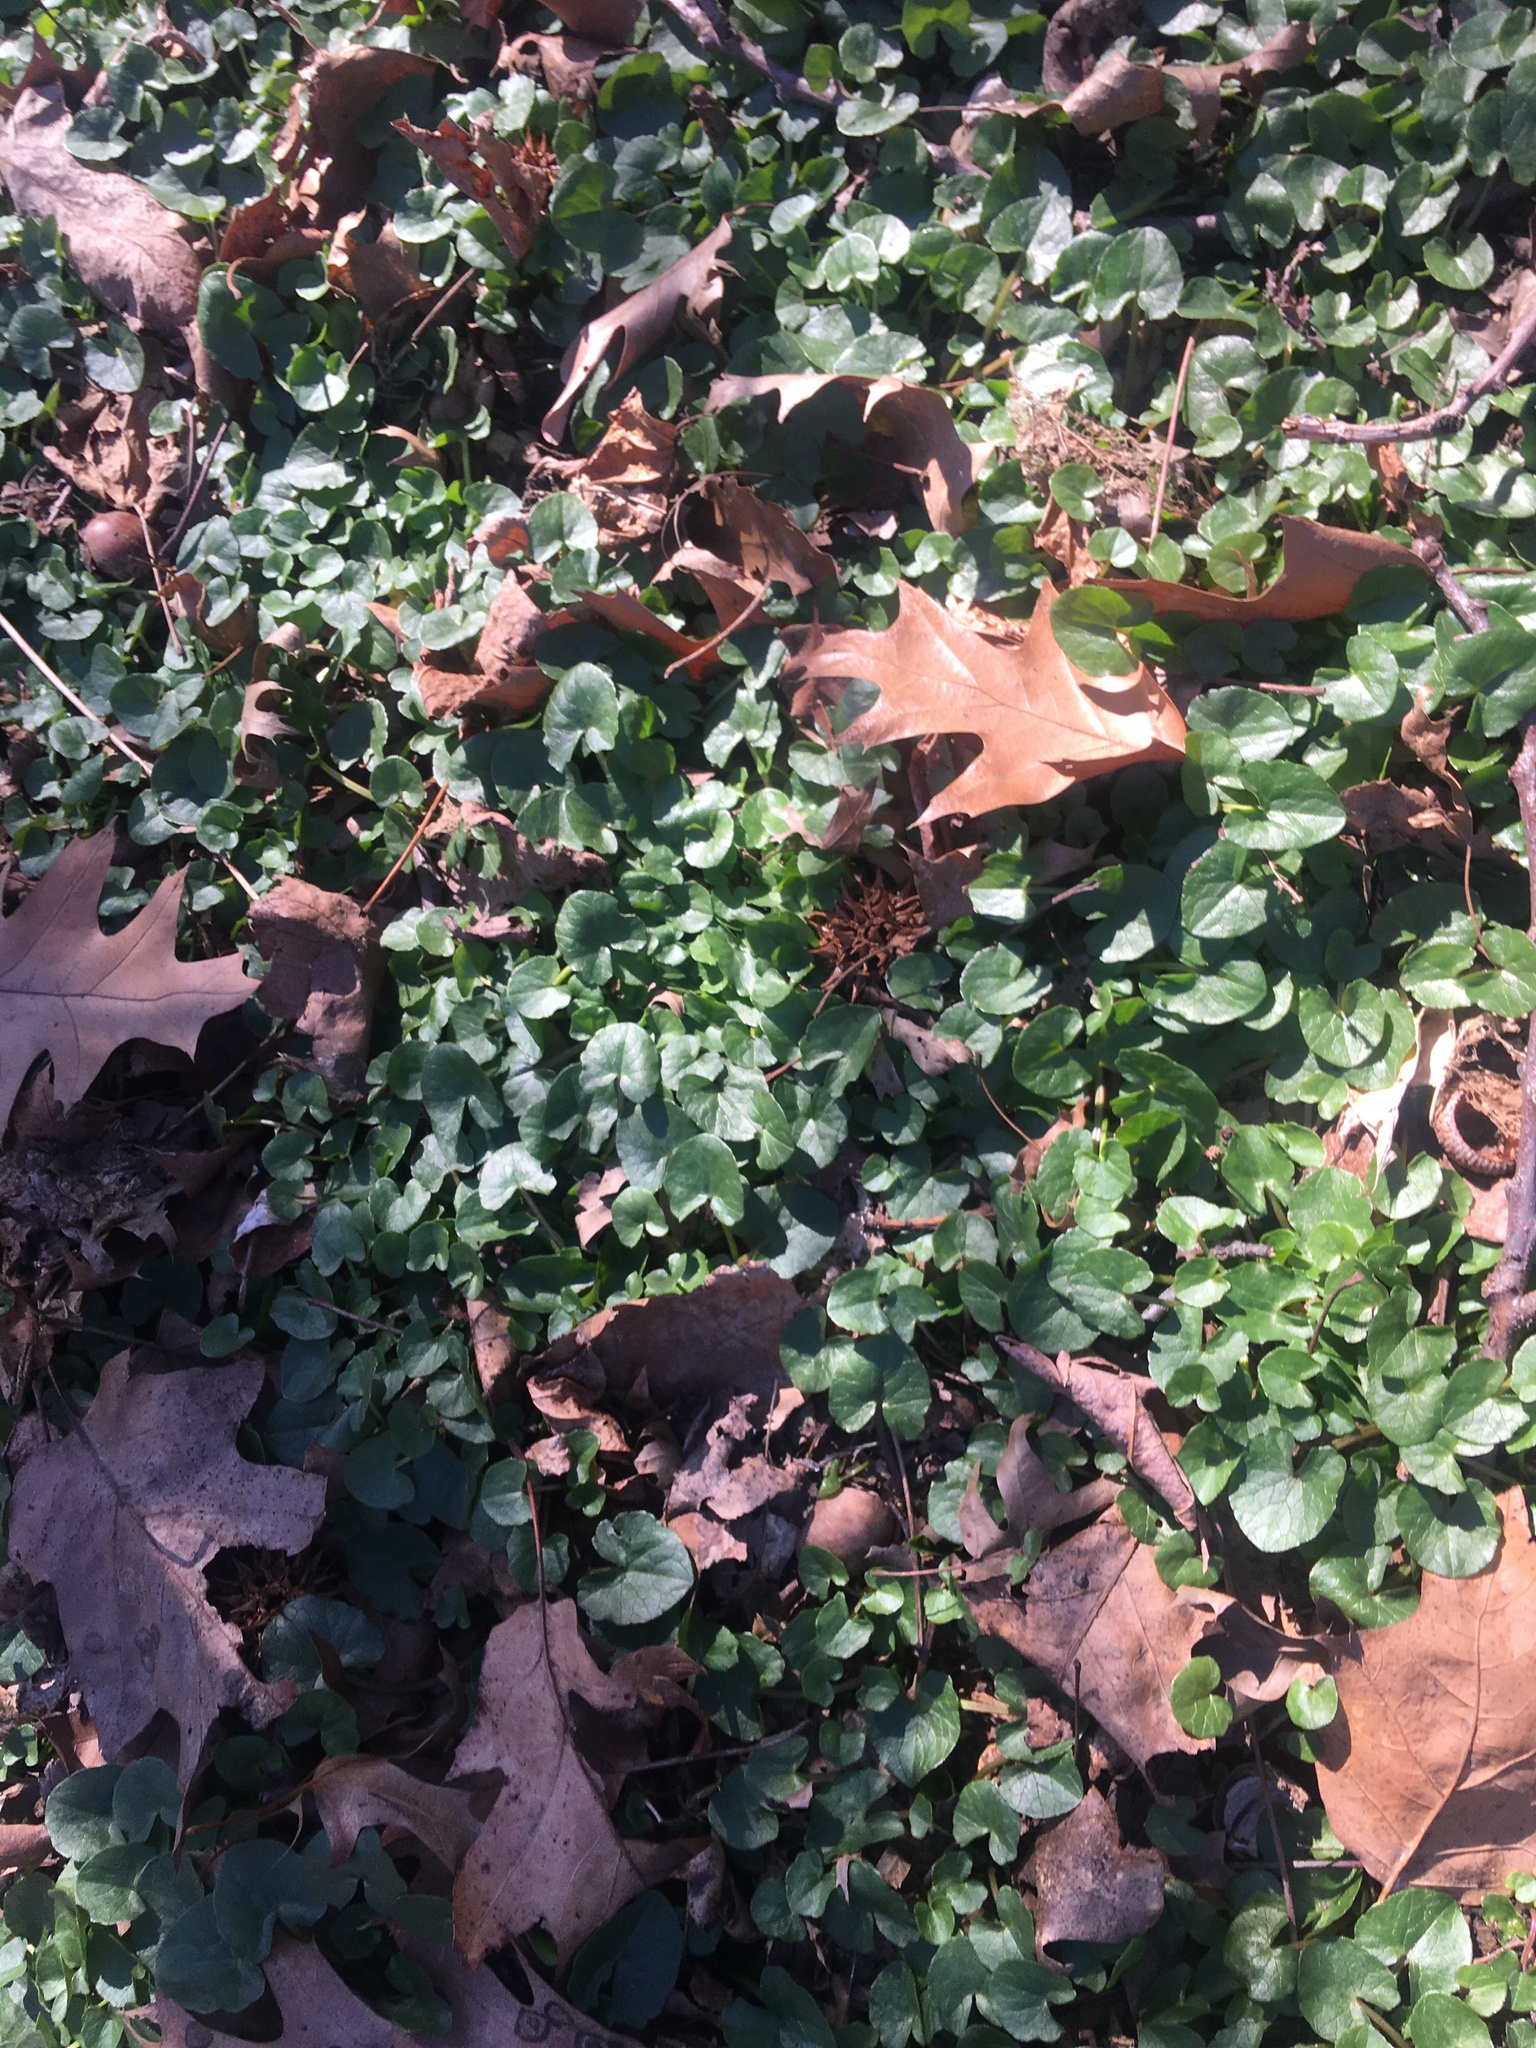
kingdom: Plantae
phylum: Tracheophyta
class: Magnoliopsida
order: Ranunculales
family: Ranunculaceae
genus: Ficaria
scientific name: Ficaria verna
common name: Lesser celandine
